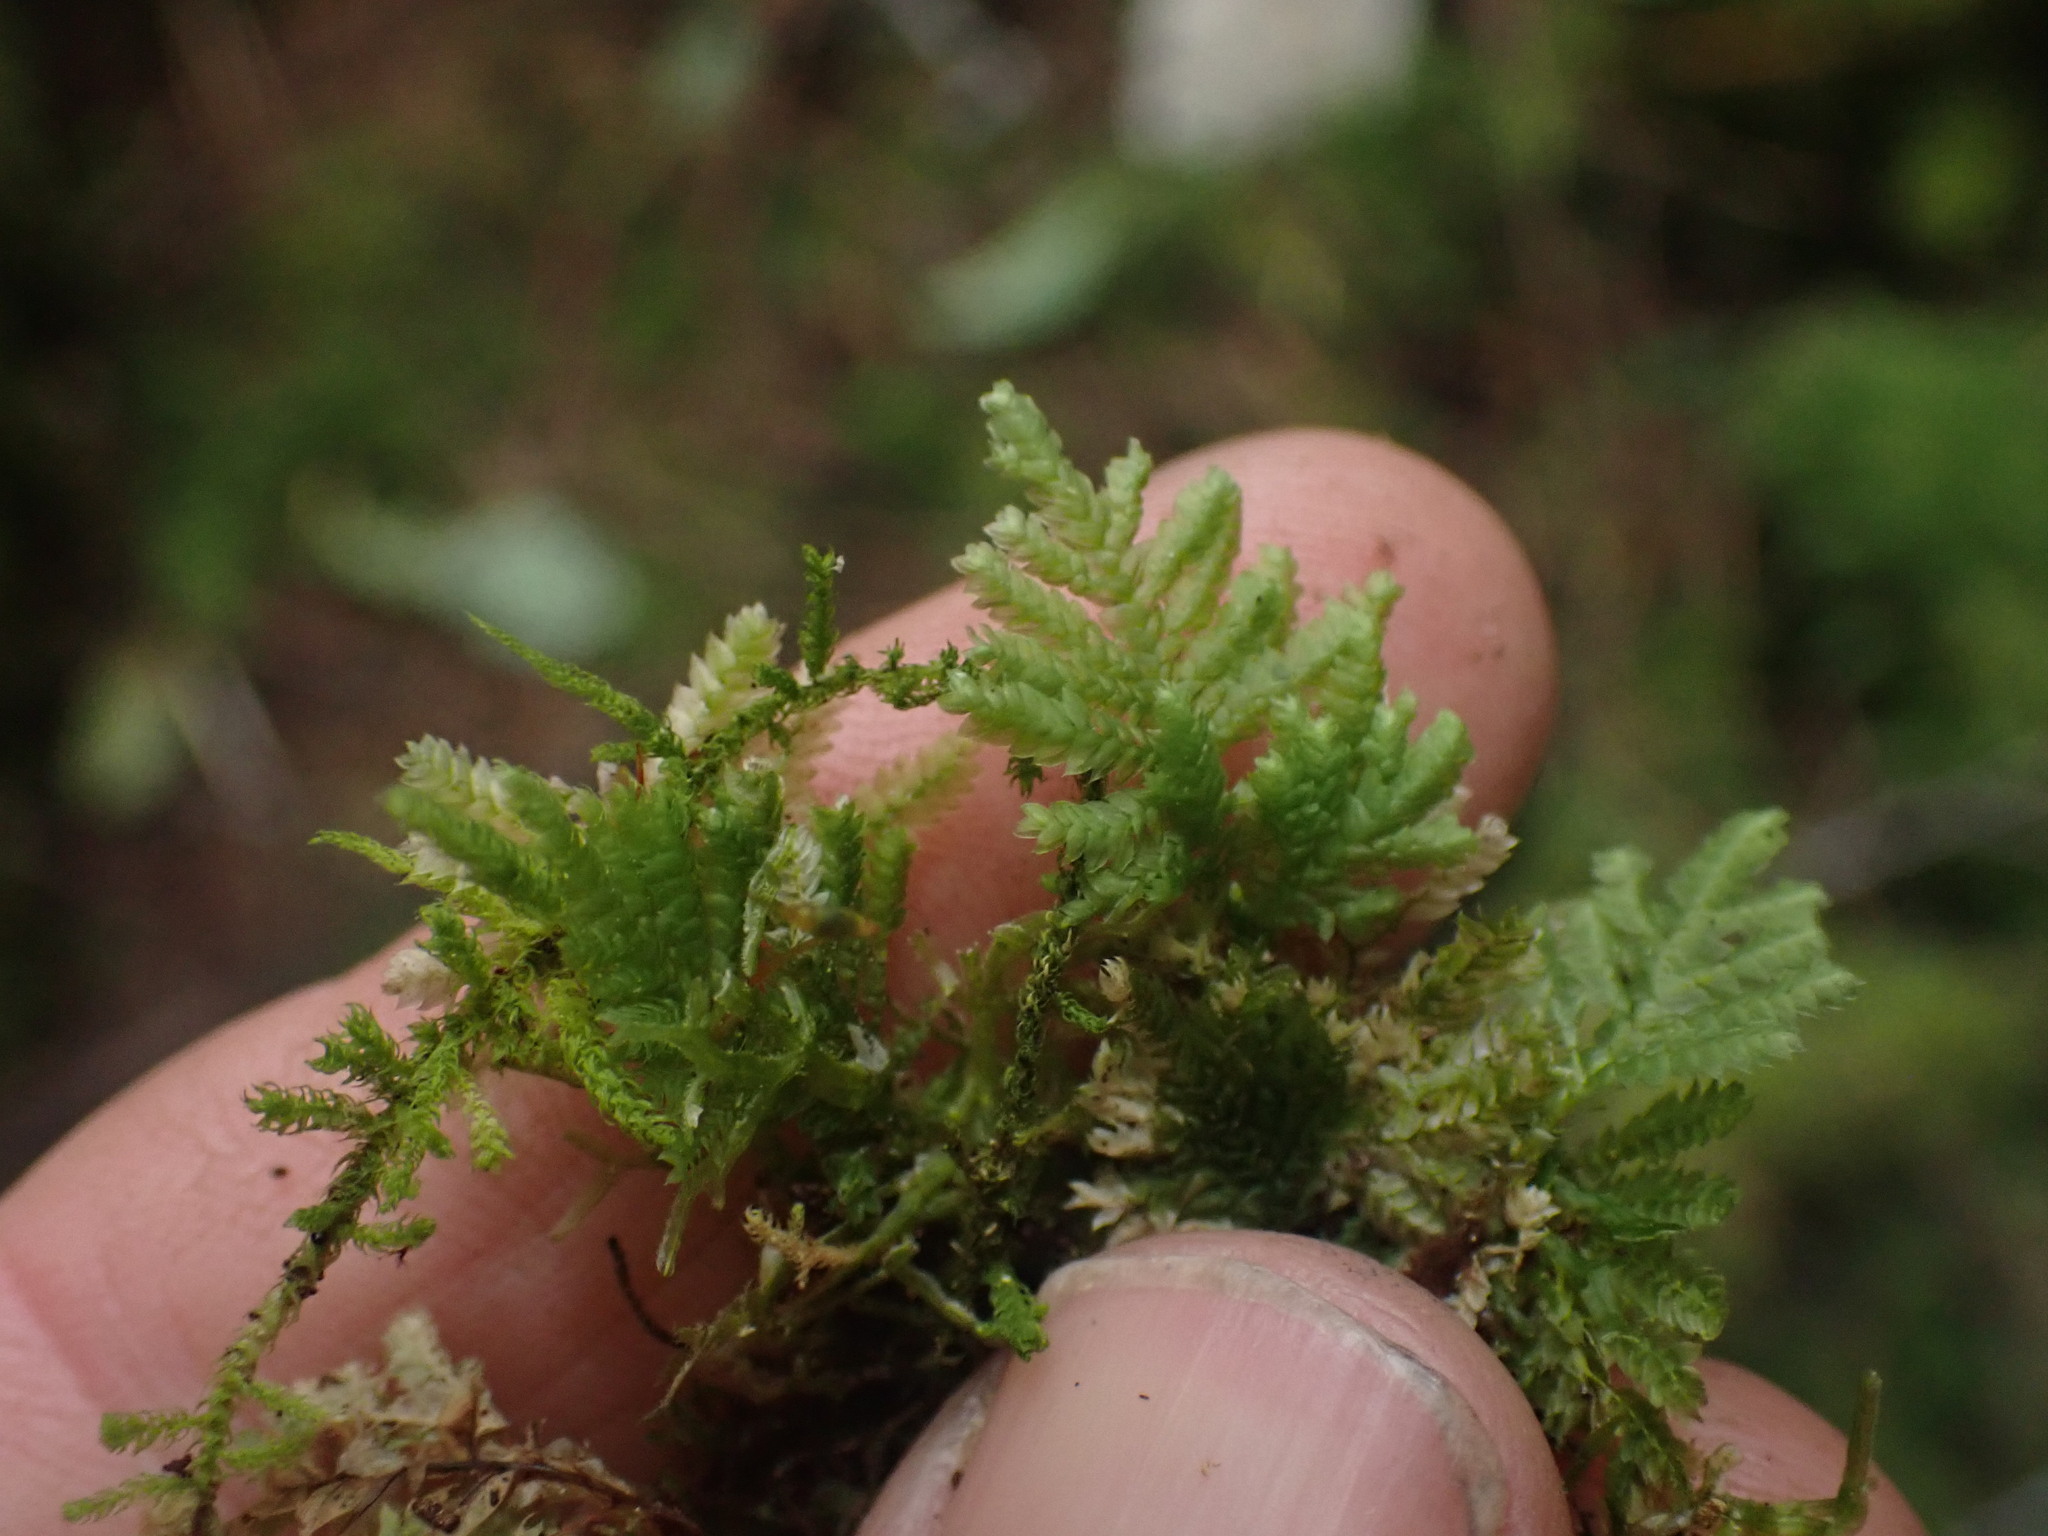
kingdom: Plantae
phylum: Bryophyta
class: Bryopsida
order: Hypopterygiales
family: Hypopterygiaceae
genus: Hypopterygium
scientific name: Hypopterygium flavolimbatum
